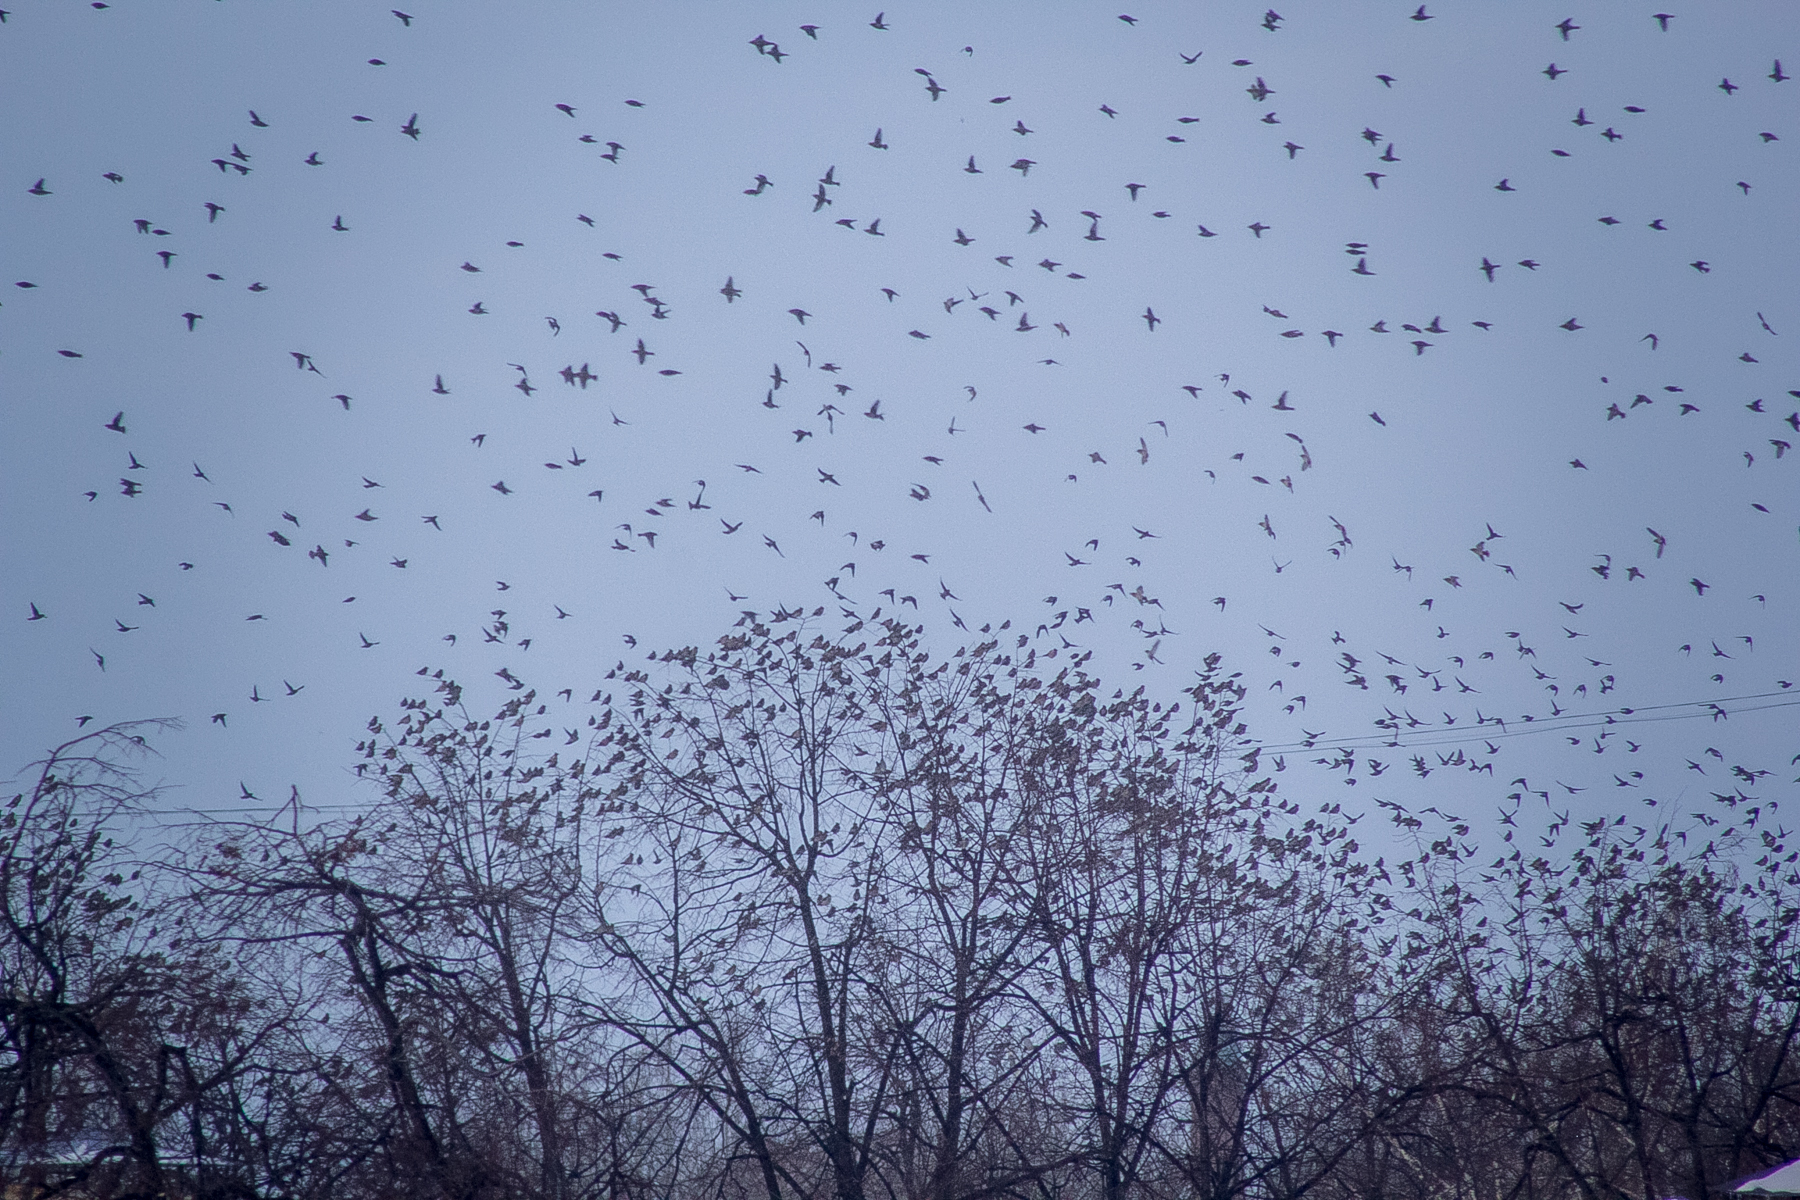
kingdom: Animalia
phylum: Chordata
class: Aves
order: Passeriformes
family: Bombycillidae
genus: Bombycilla
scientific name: Bombycilla garrulus
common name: Bohemian waxwing
